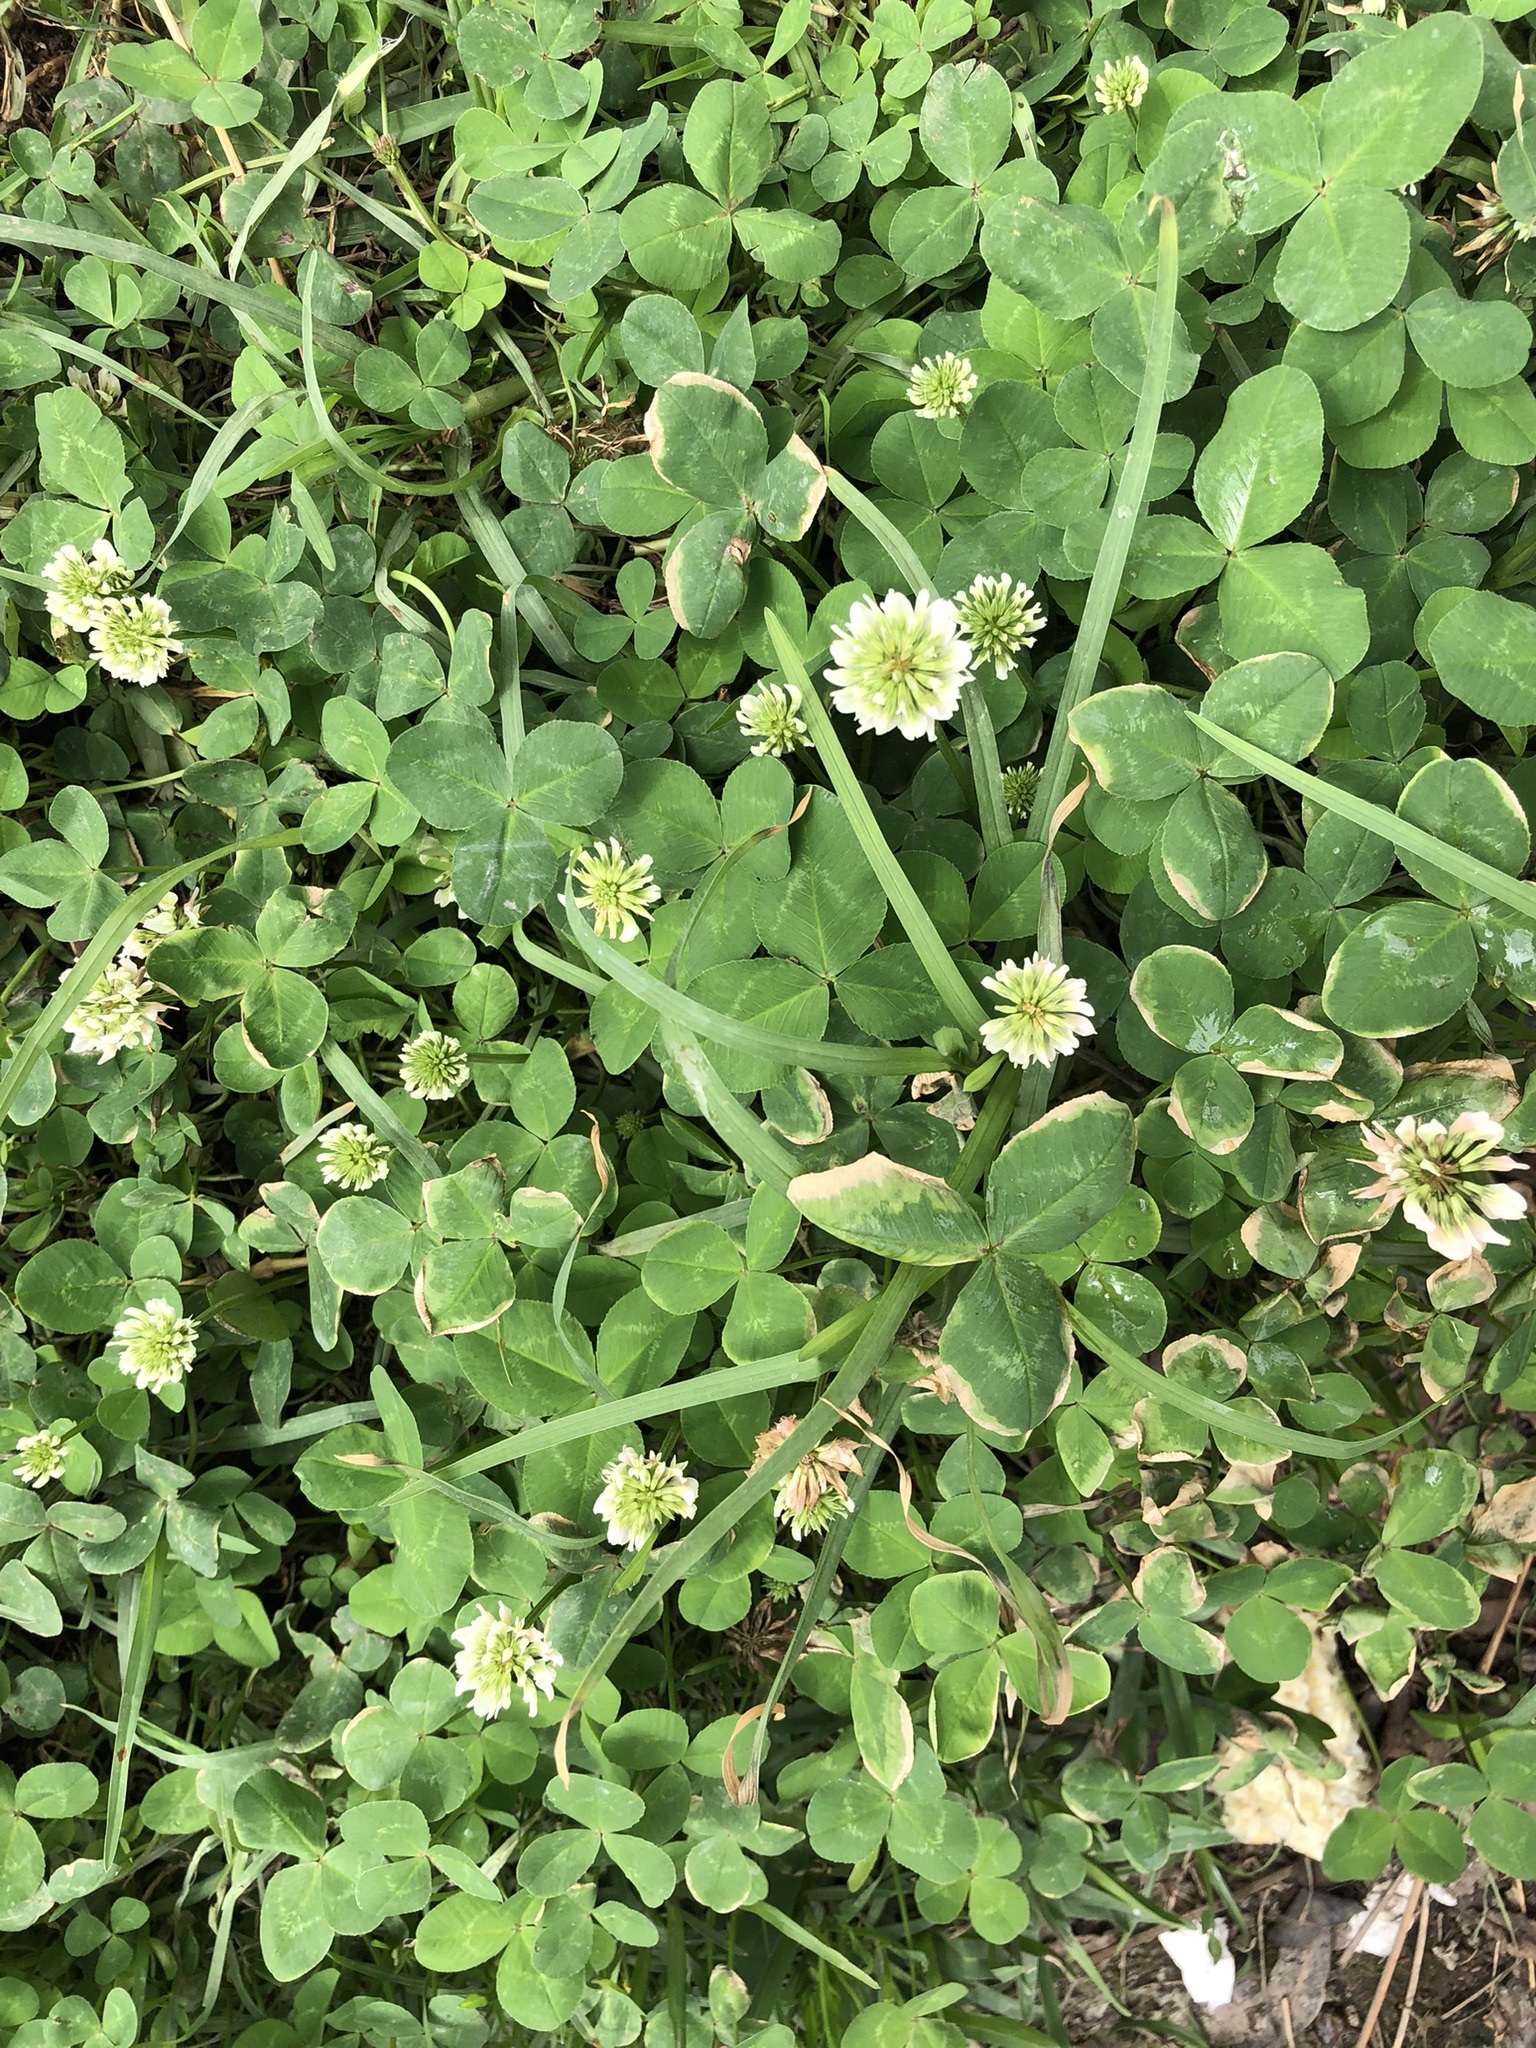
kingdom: Plantae
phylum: Tracheophyta
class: Magnoliopsida
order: Fabales
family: Fabaceae
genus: Trifolium
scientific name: Trifolium repens
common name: White clover
